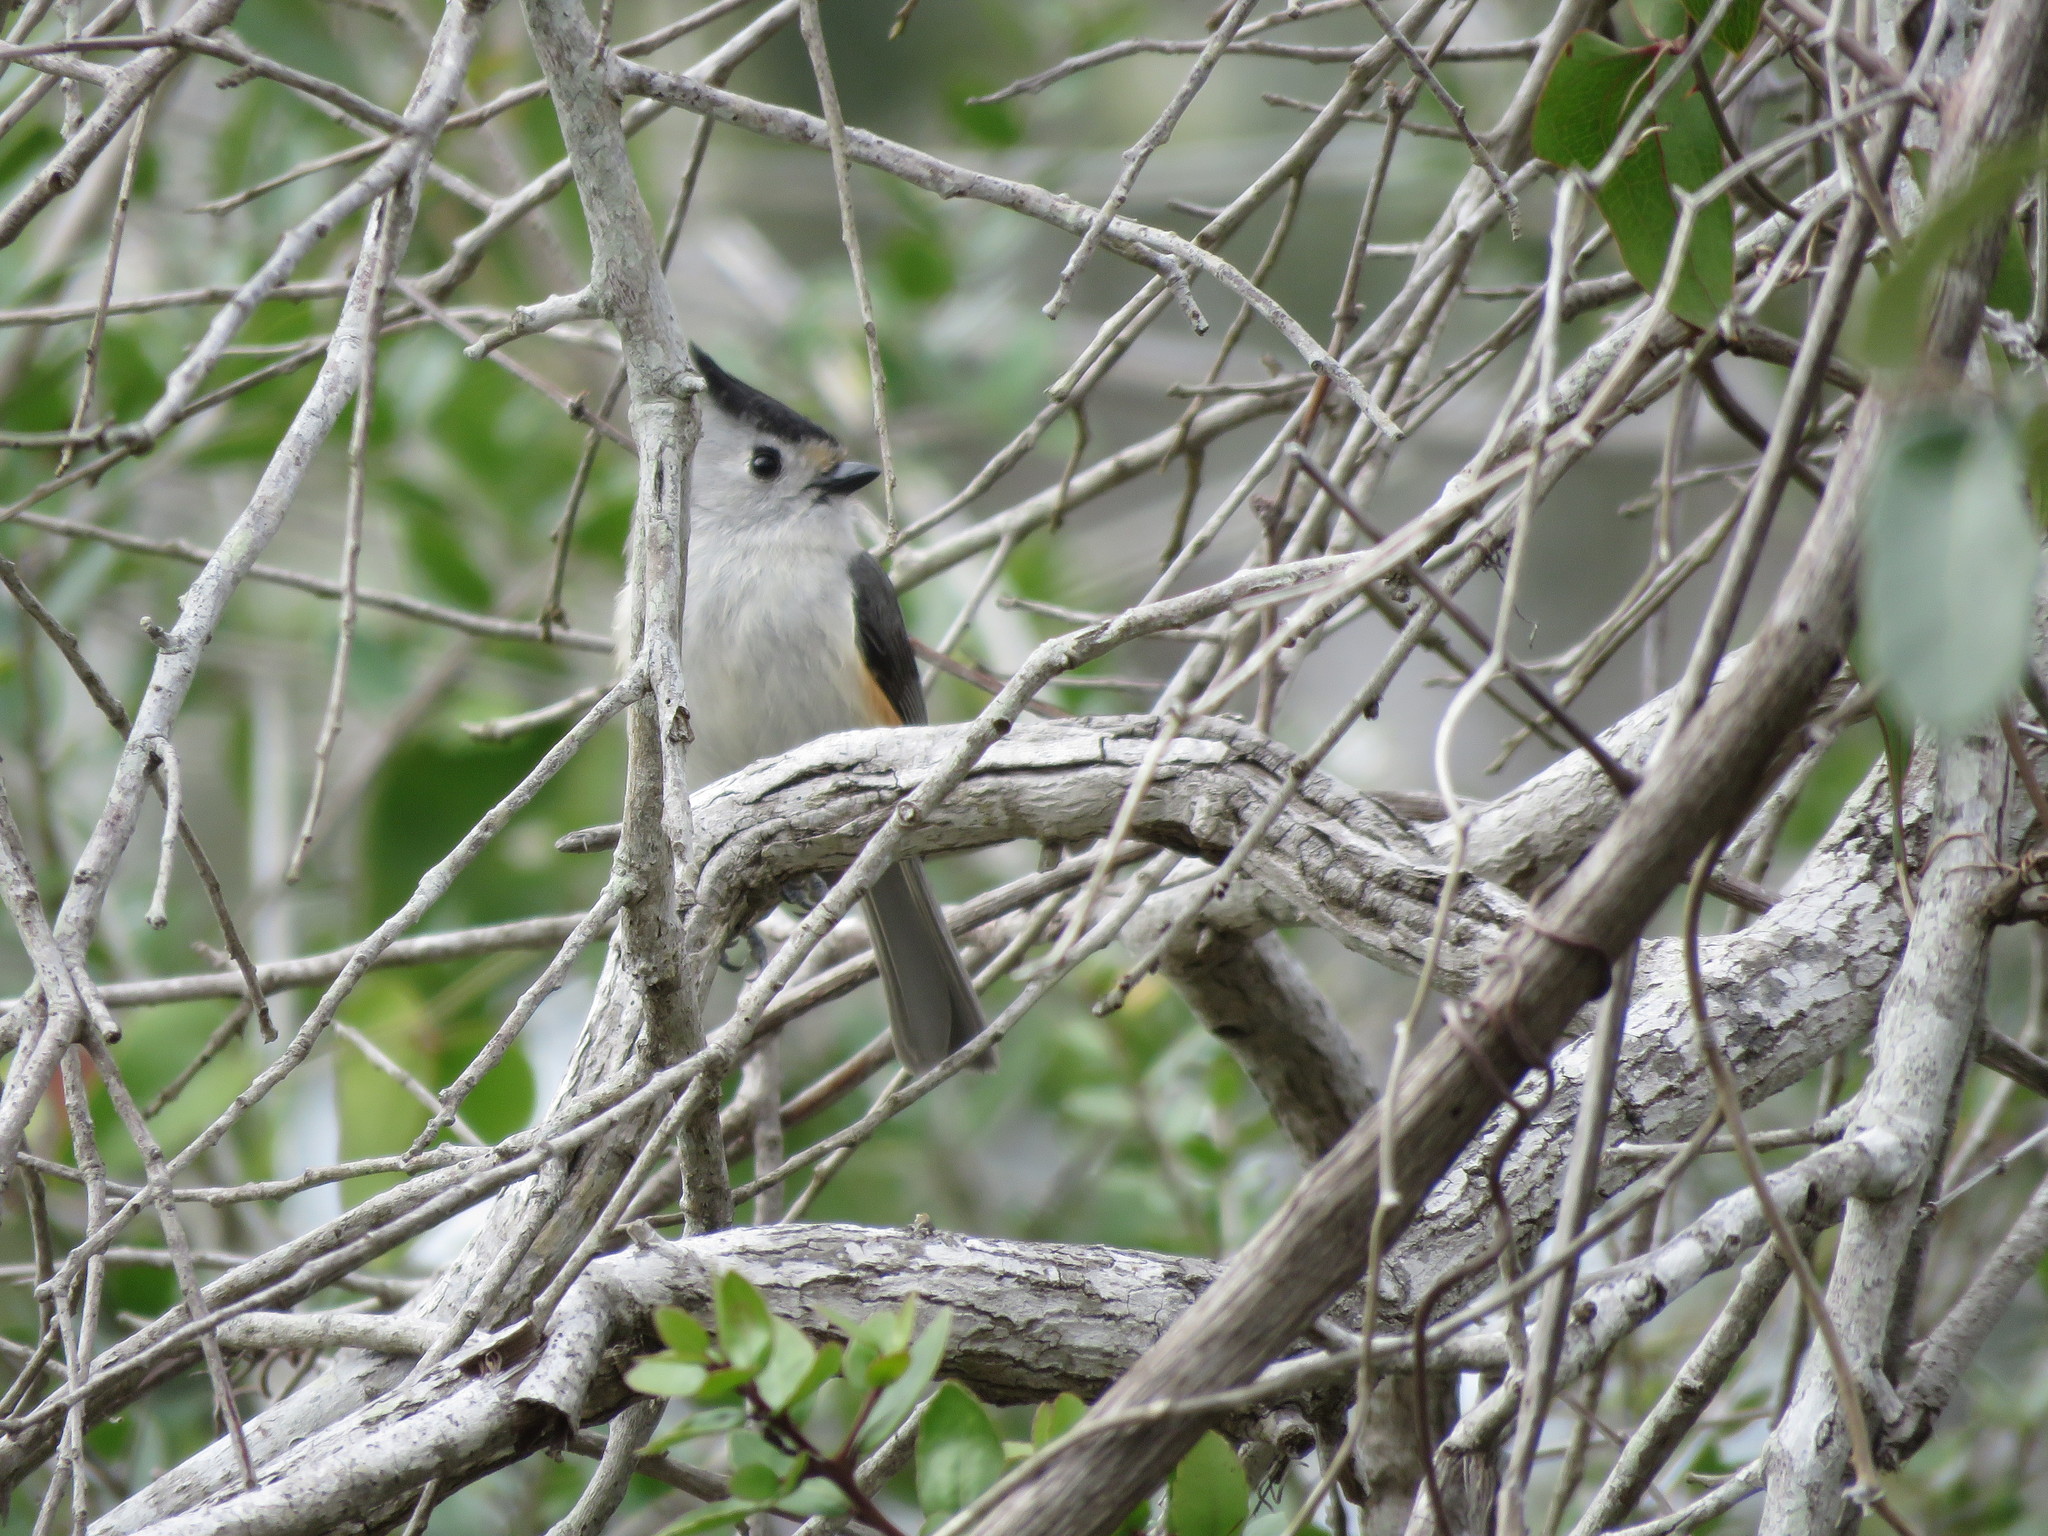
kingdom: Animalia
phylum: Chordata
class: Aves
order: Passeriformes
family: Paridae
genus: Baeolophus
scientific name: Baeolophus atricristatus
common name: Black-crested titmouse
